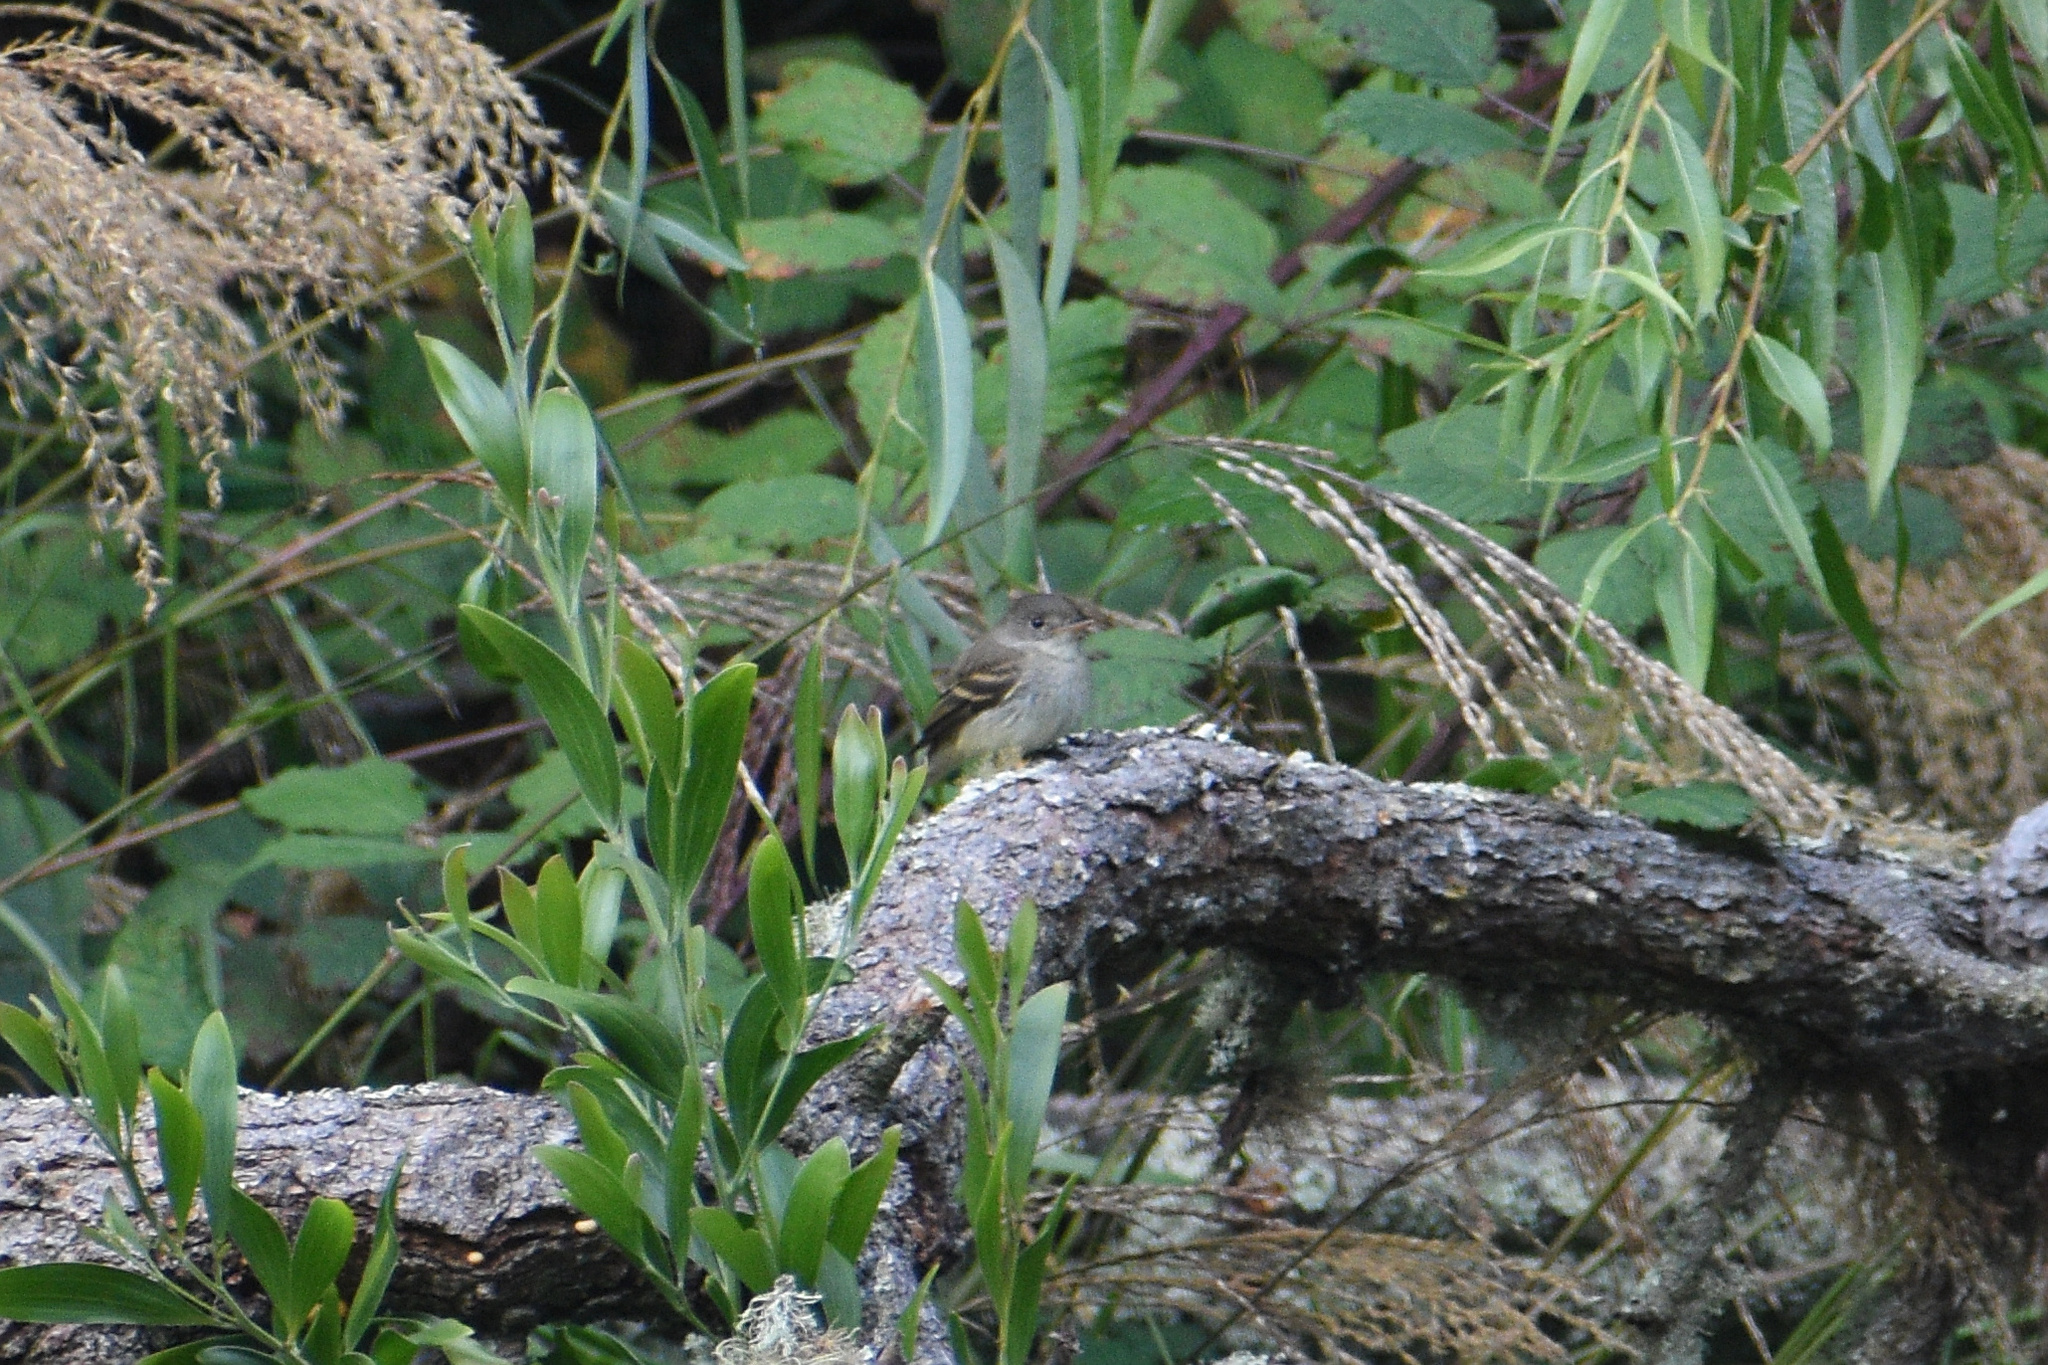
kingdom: Animalia
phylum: Chordata
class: Aves
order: Passeriformes
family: Tyrannidae
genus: Empidonax
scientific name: Empidonax traillii
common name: Willow flycatcher
